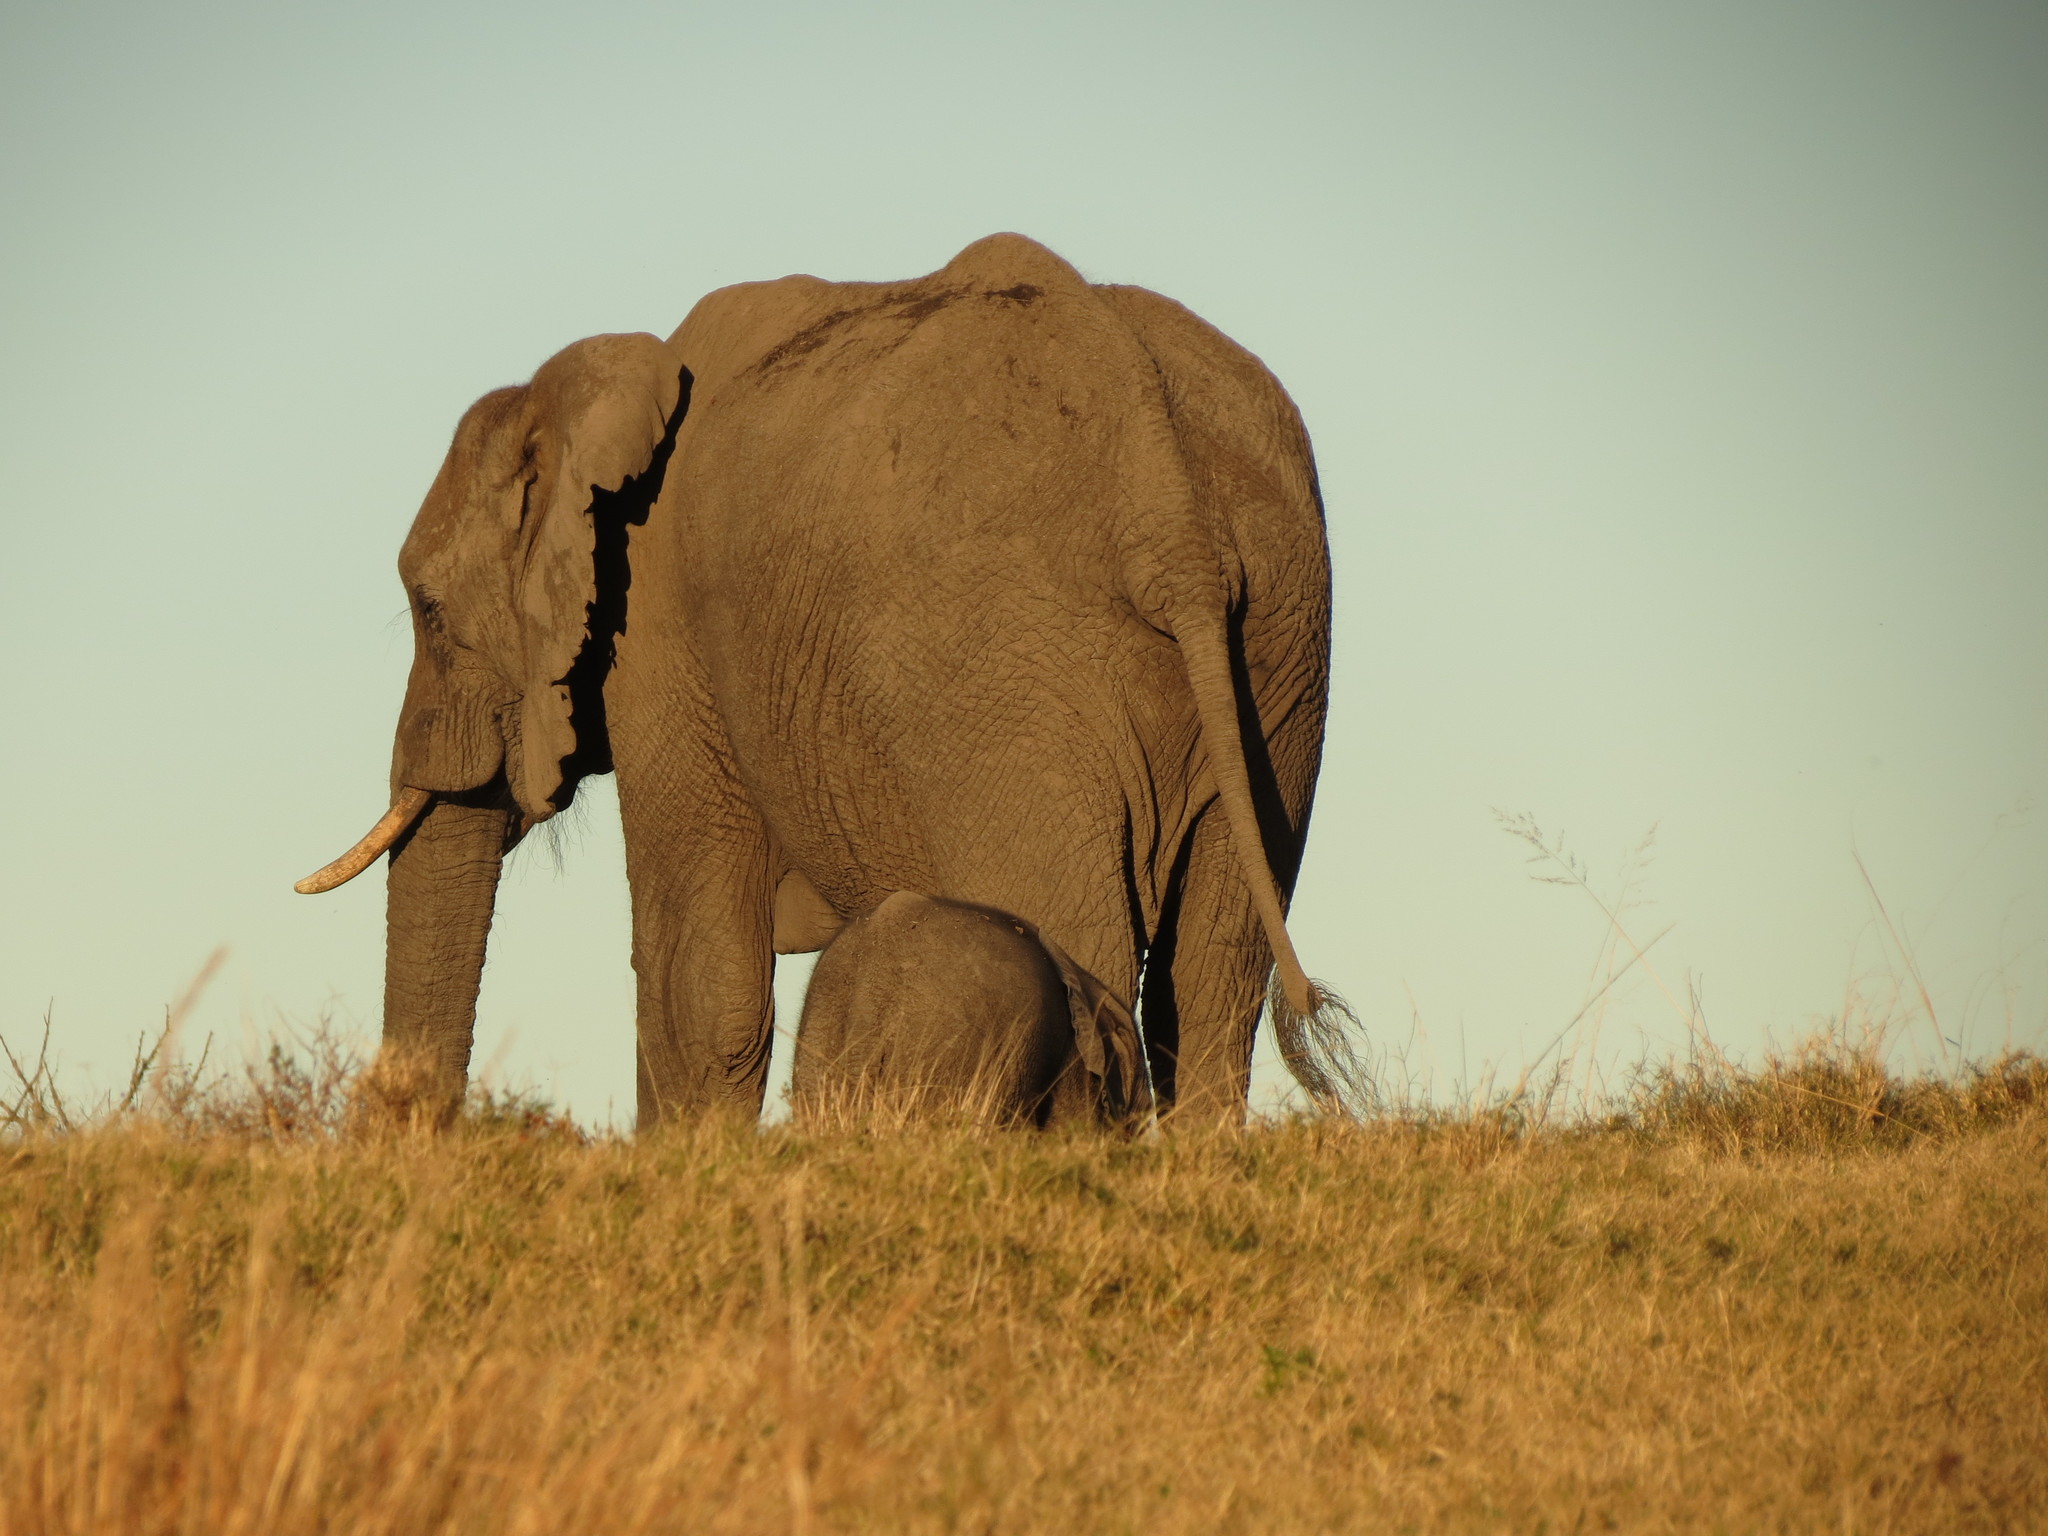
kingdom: Animalia
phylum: Chordata
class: Mammalia
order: Proboscidea
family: Elephantidae
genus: Loxodonta
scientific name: Loxodonta africana
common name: African elephant
